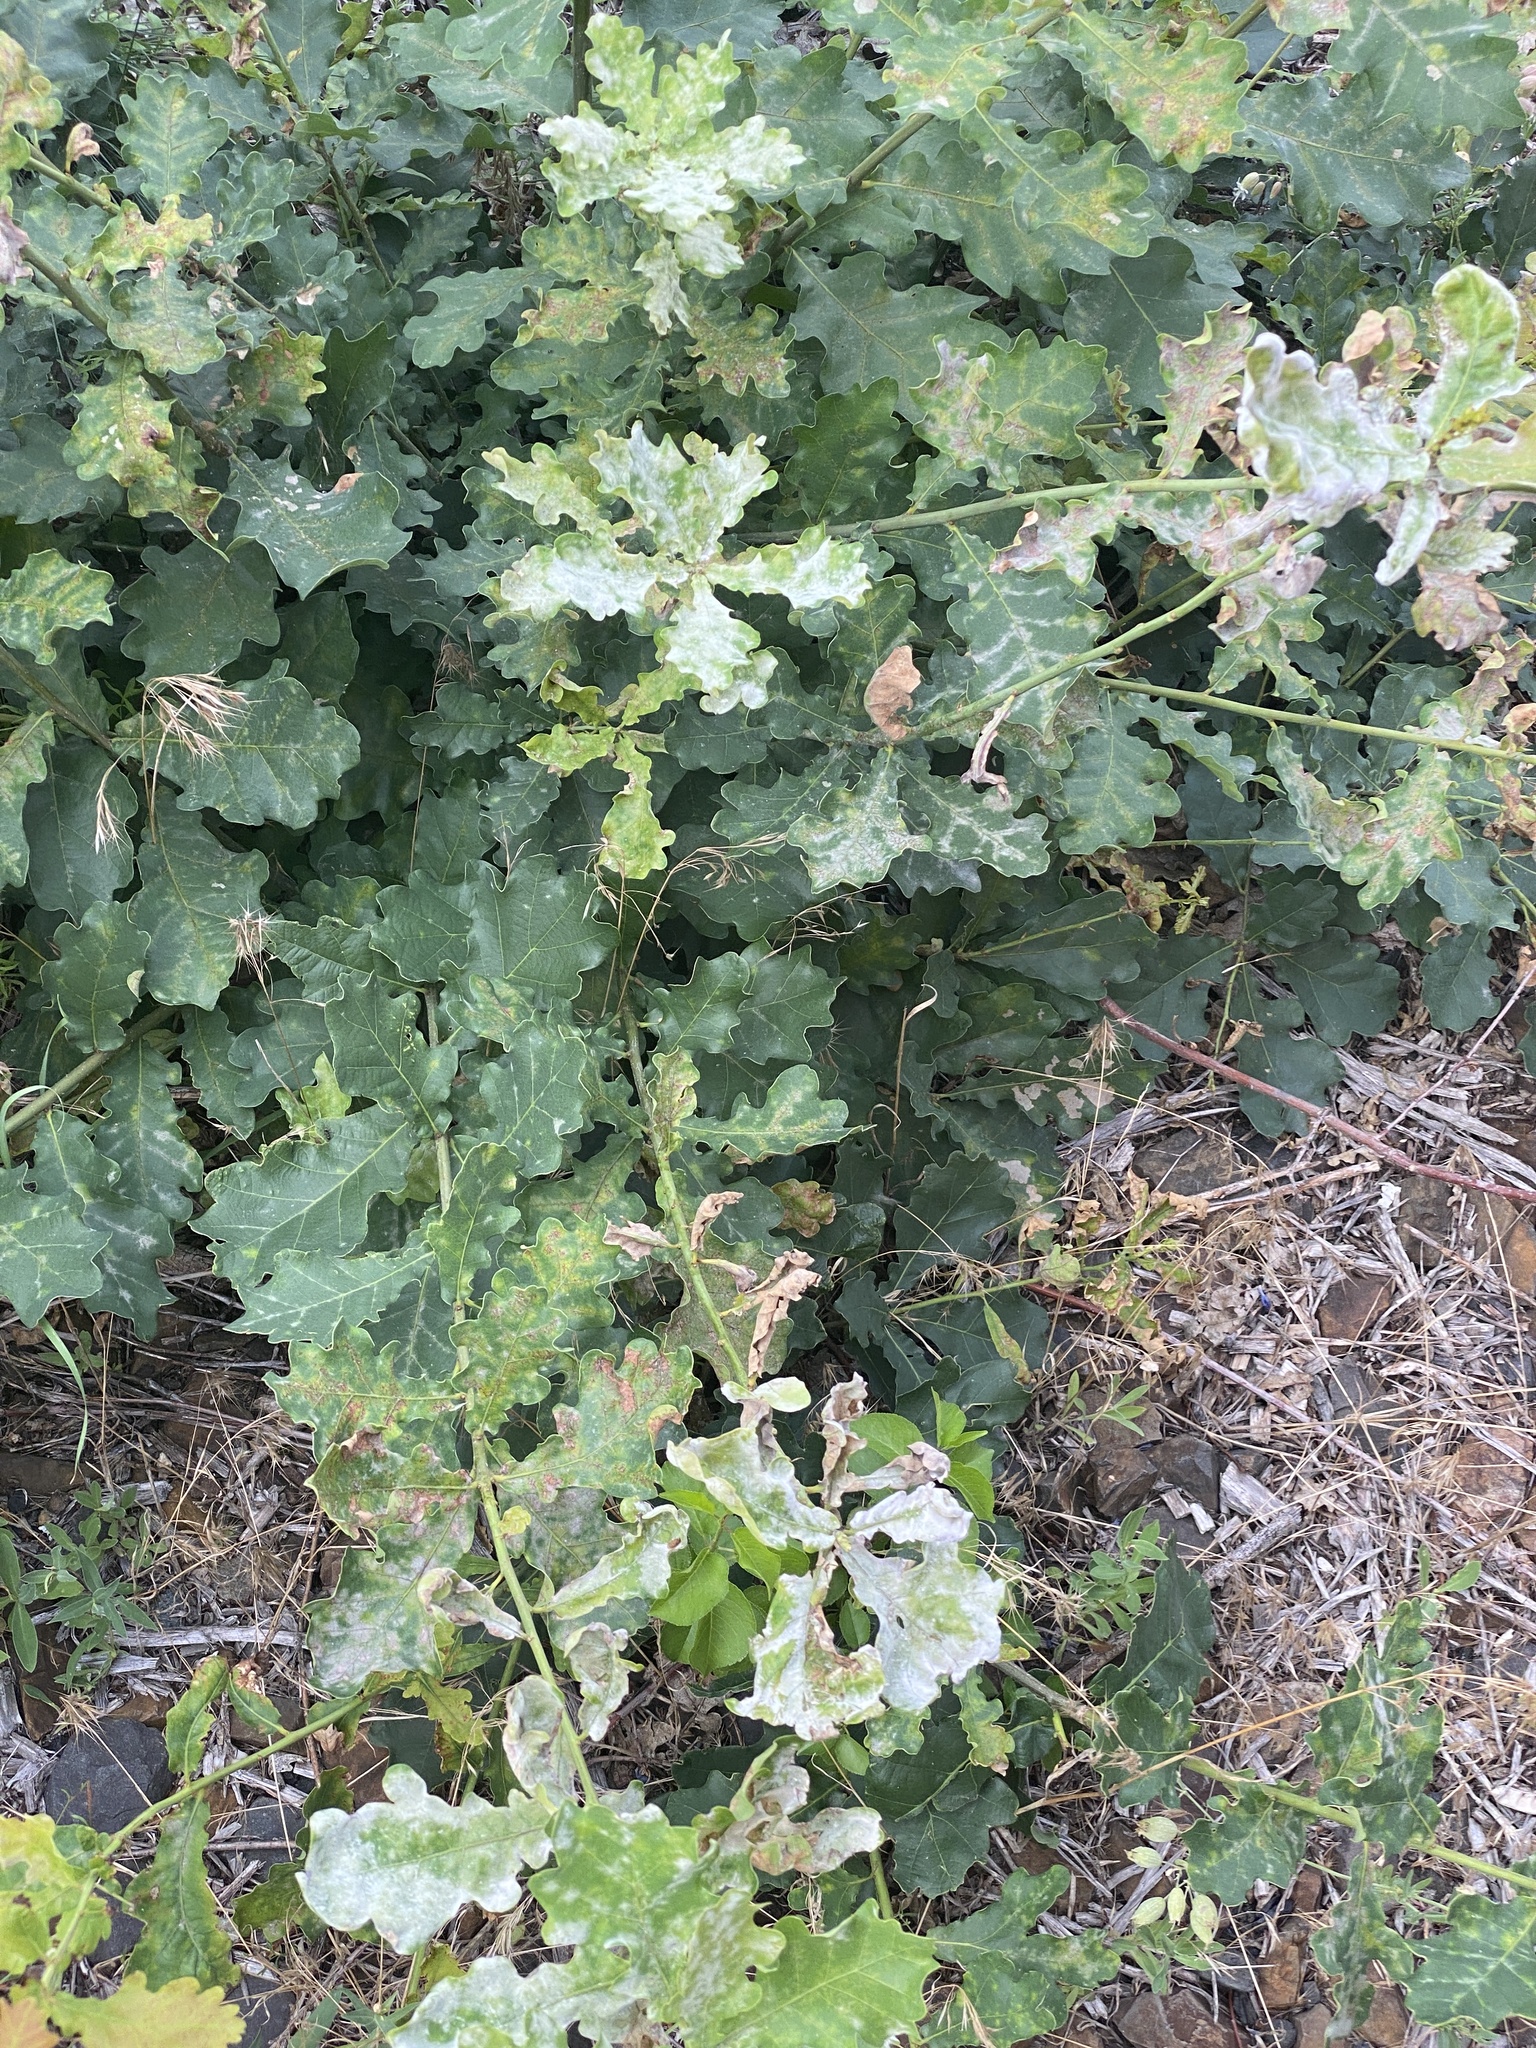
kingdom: Plantae
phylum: Tracheophyta
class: Magnoliopsida
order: Fagales
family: Fagaceae
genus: Quercus
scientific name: Quercus robur
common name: Pedunculate oak
